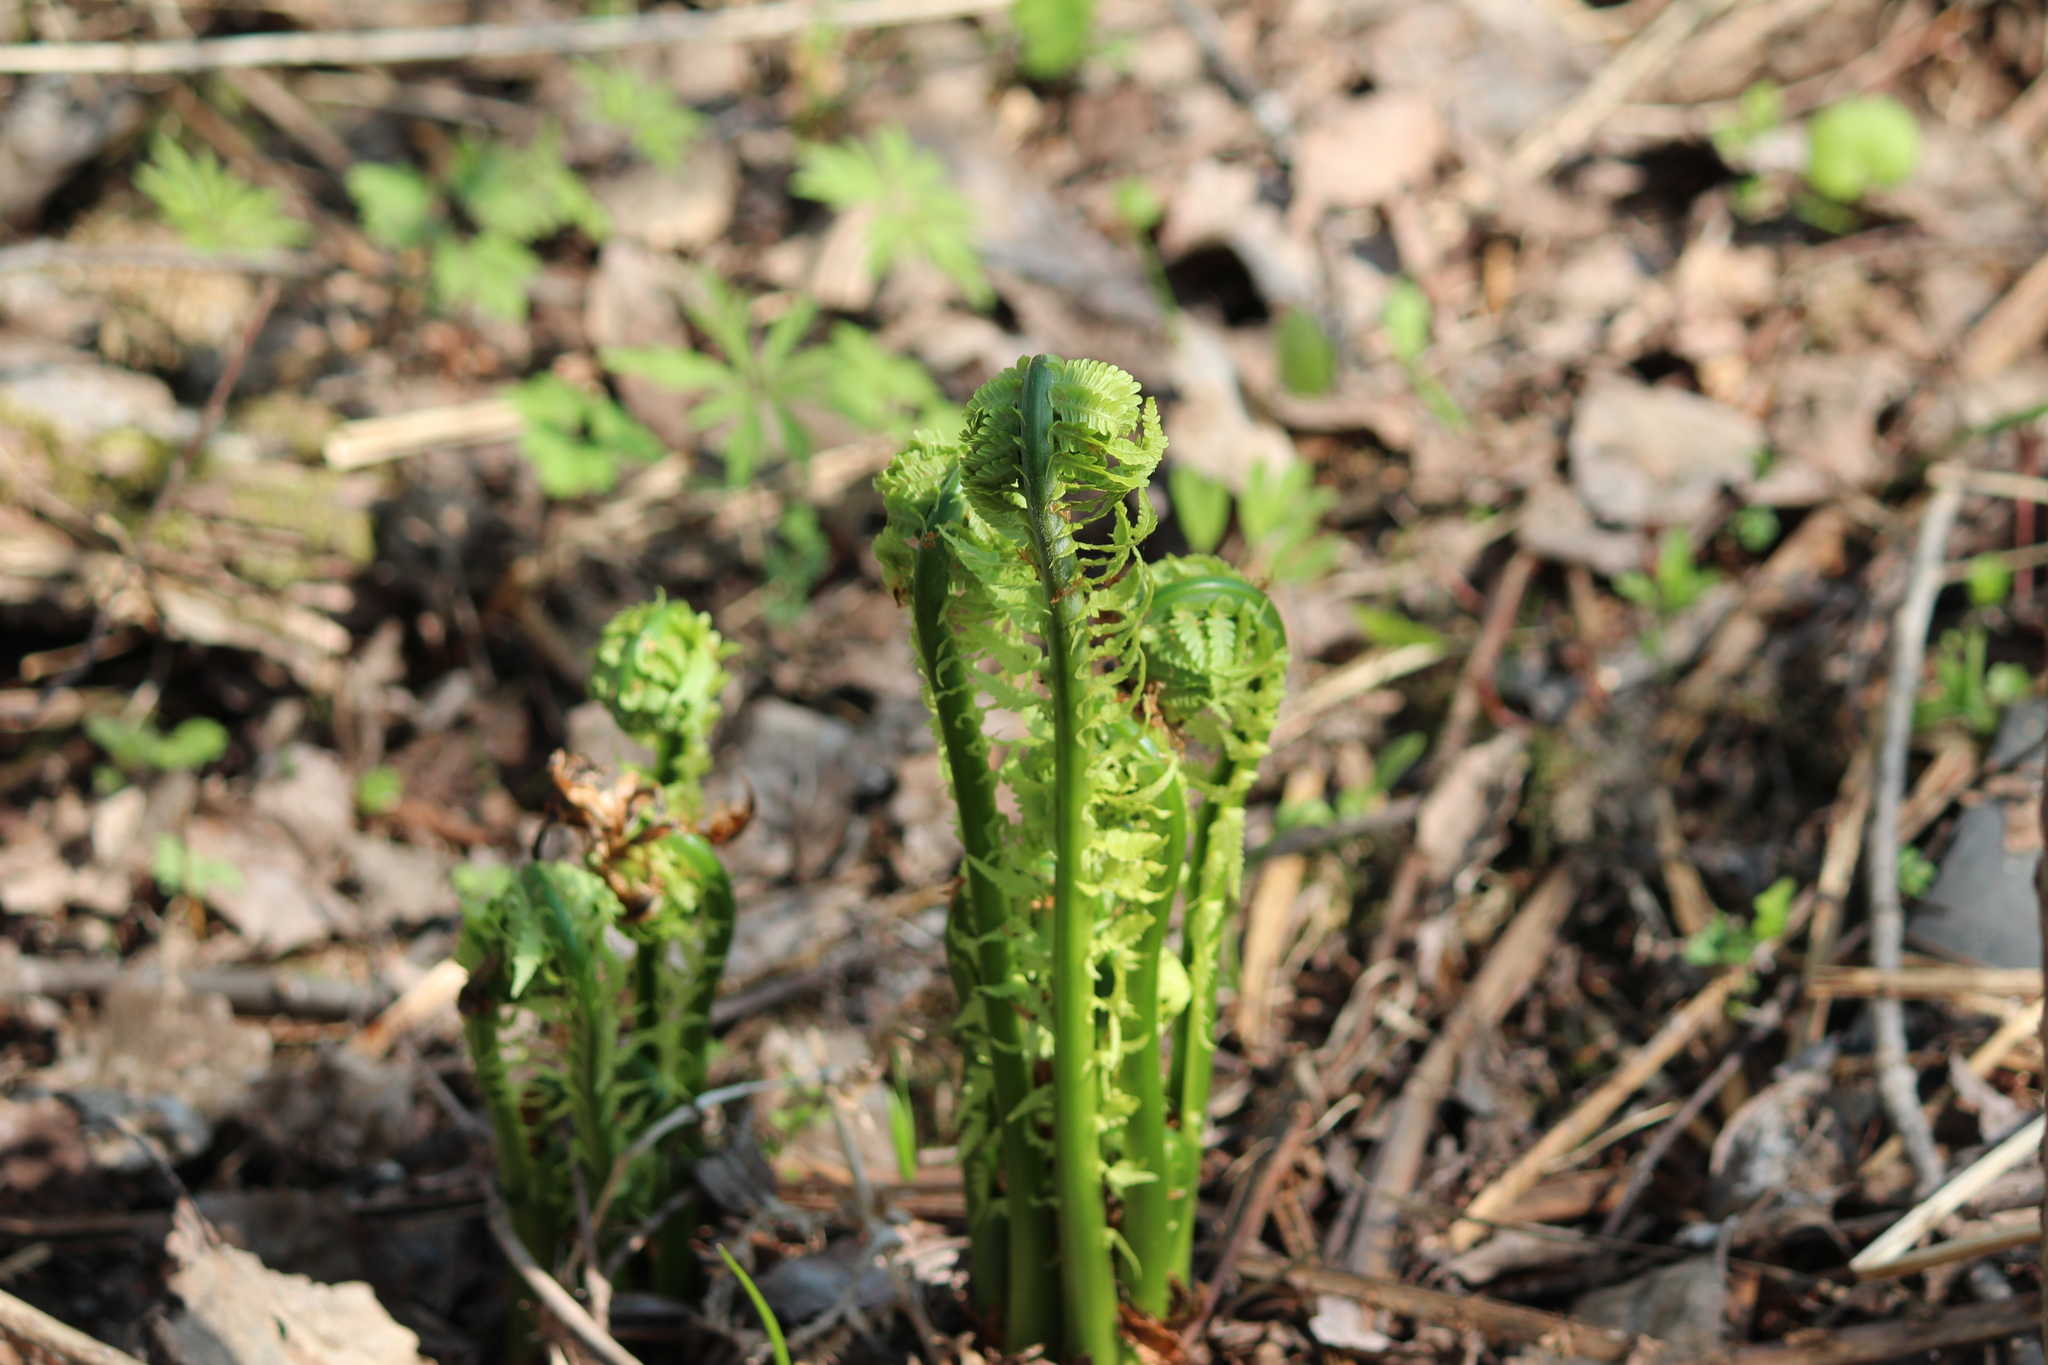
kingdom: Plantae
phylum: Tracheophyta
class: Polypodiopsida
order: Polypodiales
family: Onocleaceae
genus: Matteuccia
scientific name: Matteuccia struthiopteris
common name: Ostrich fern
